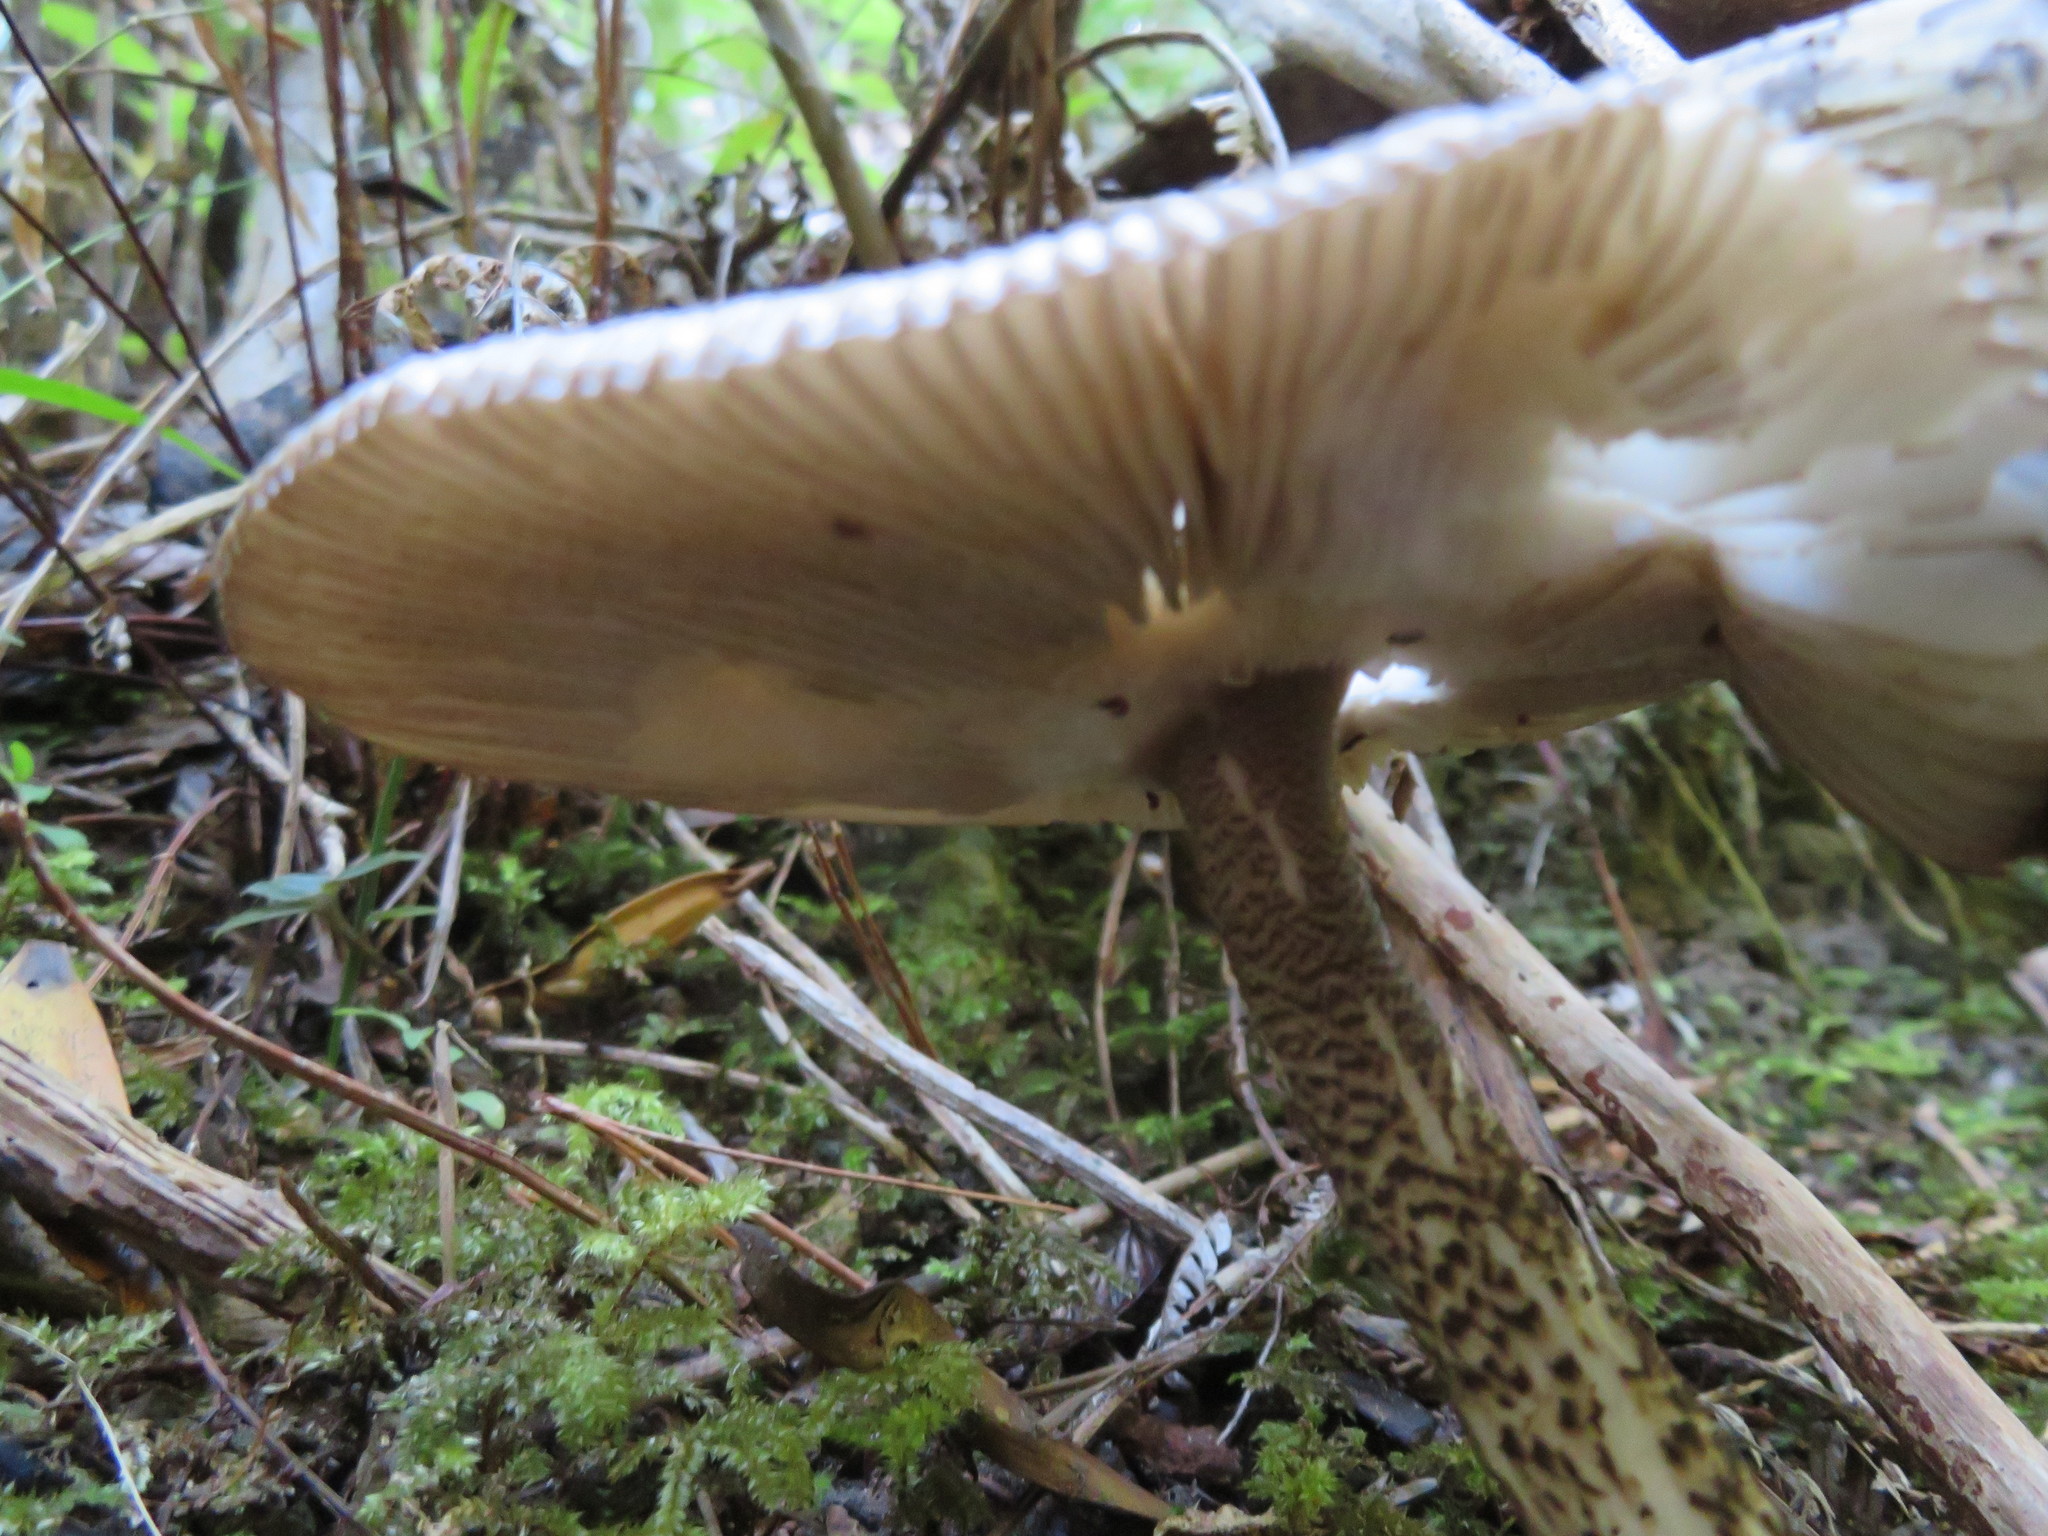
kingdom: Fungi
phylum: Basidiomycota
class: Agaricomycetes
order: Agaricales
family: Amanitaceae
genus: Amanita
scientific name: Amanita pekeoides
